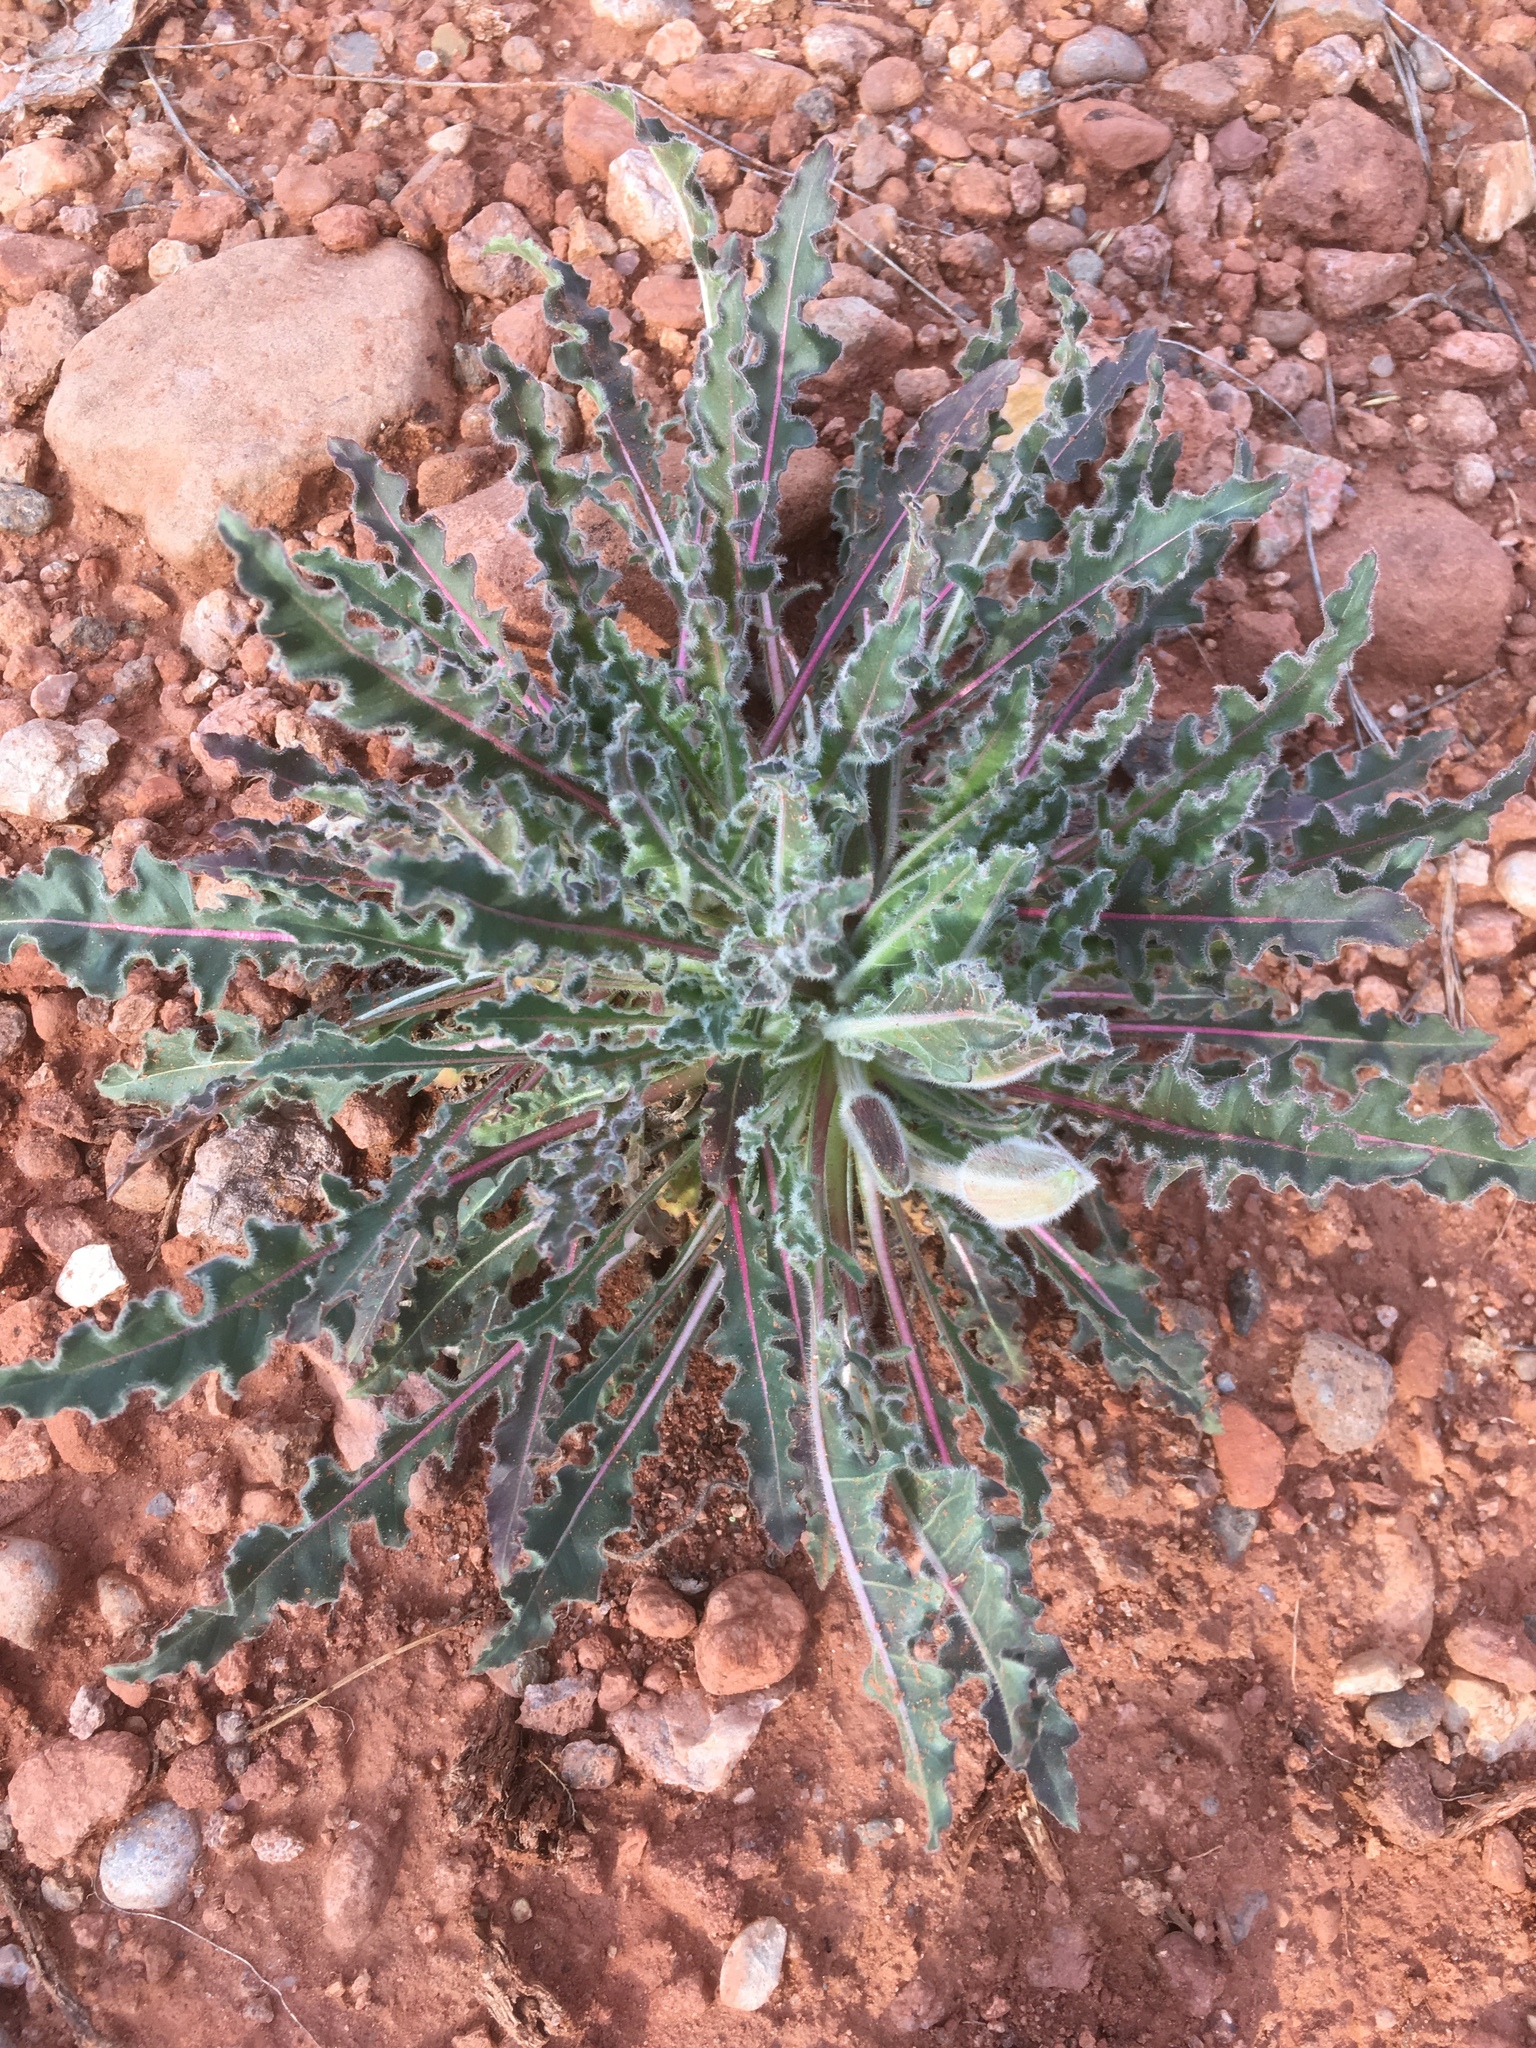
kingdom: Plantae
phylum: Tracheophyta
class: Magnoliopsida
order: Myrtales
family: Onagraceae
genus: Oenothera
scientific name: Oenothera cespitosa
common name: Tufted evening-primrose
